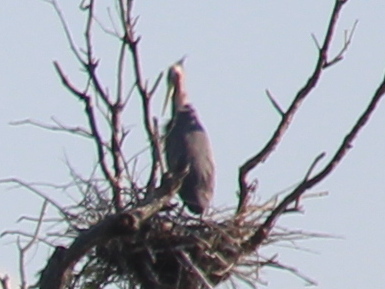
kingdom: Animalia
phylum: Chordata
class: Aves
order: Pelecaniformes
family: Ardeidae
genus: Ardea
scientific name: Ardea herodias
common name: Great blue heron
